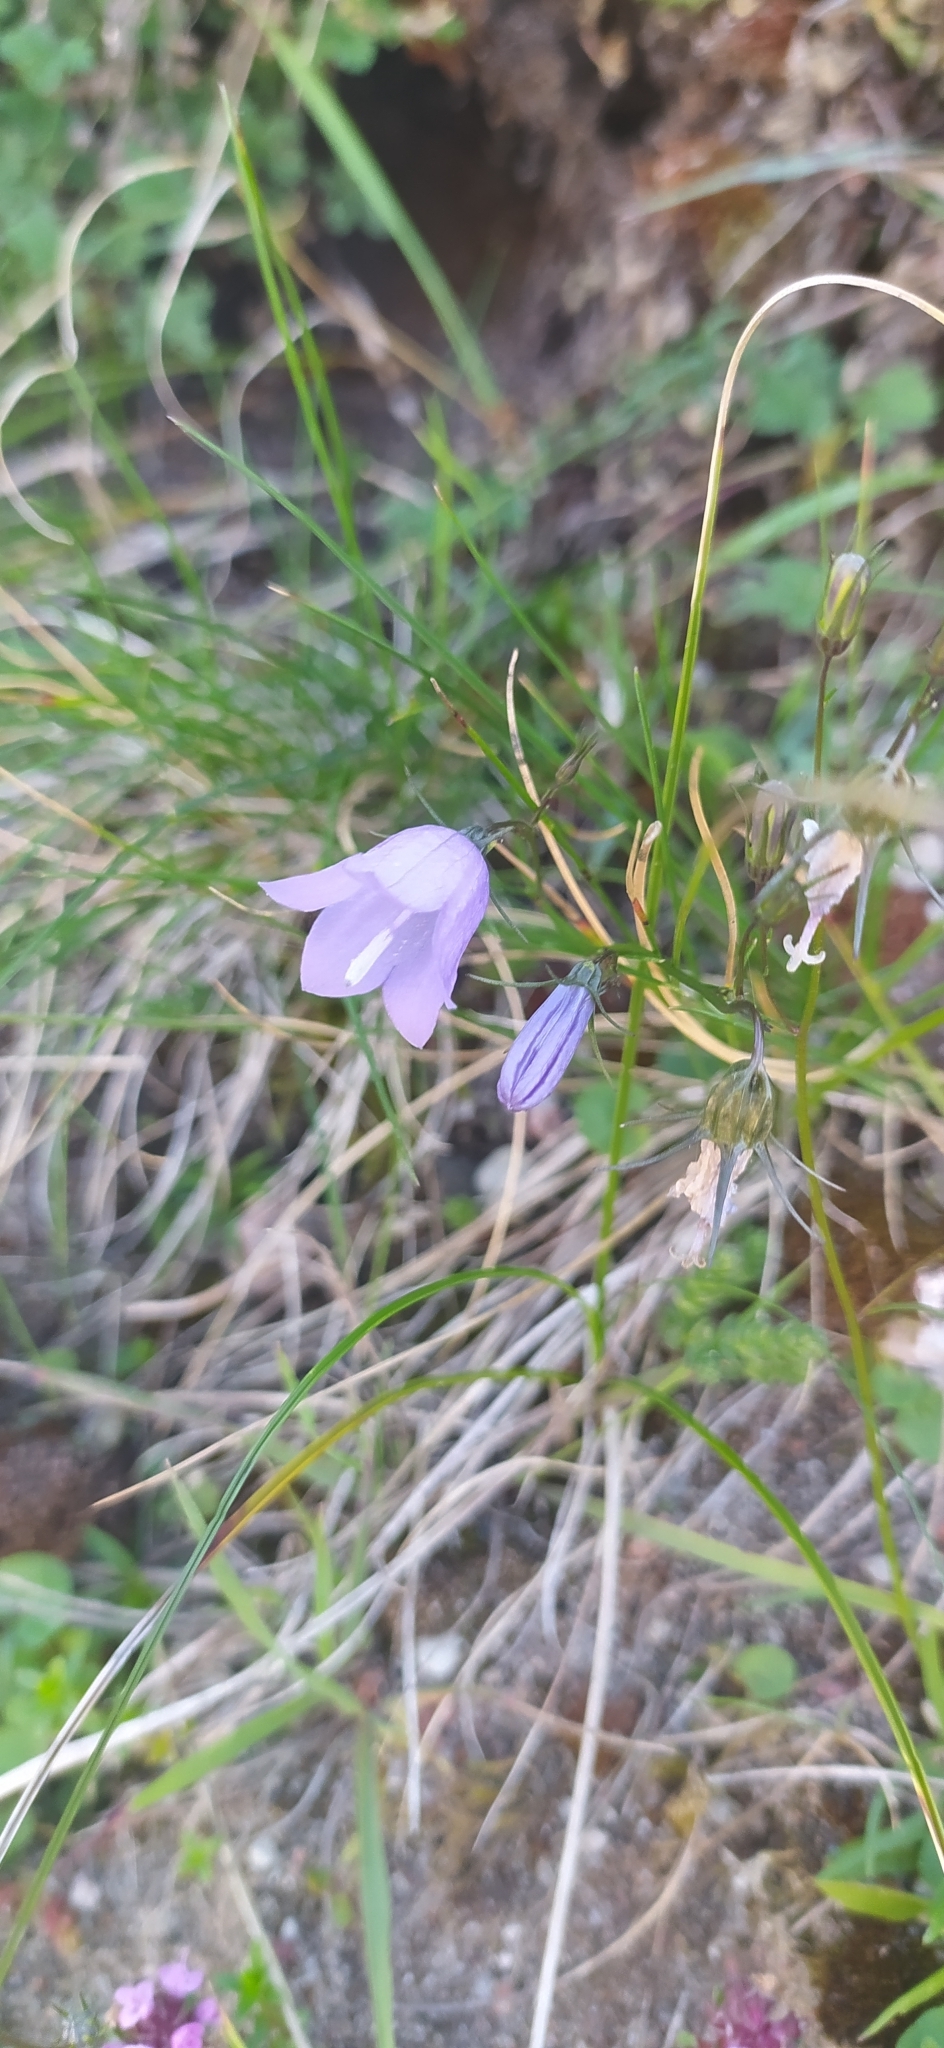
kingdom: Plantae
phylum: Tracheophyta
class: Magnoliopsida
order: Asterales
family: Campanulaceae
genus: Campanula
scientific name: Campanula rotundifolia
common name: Harebell
